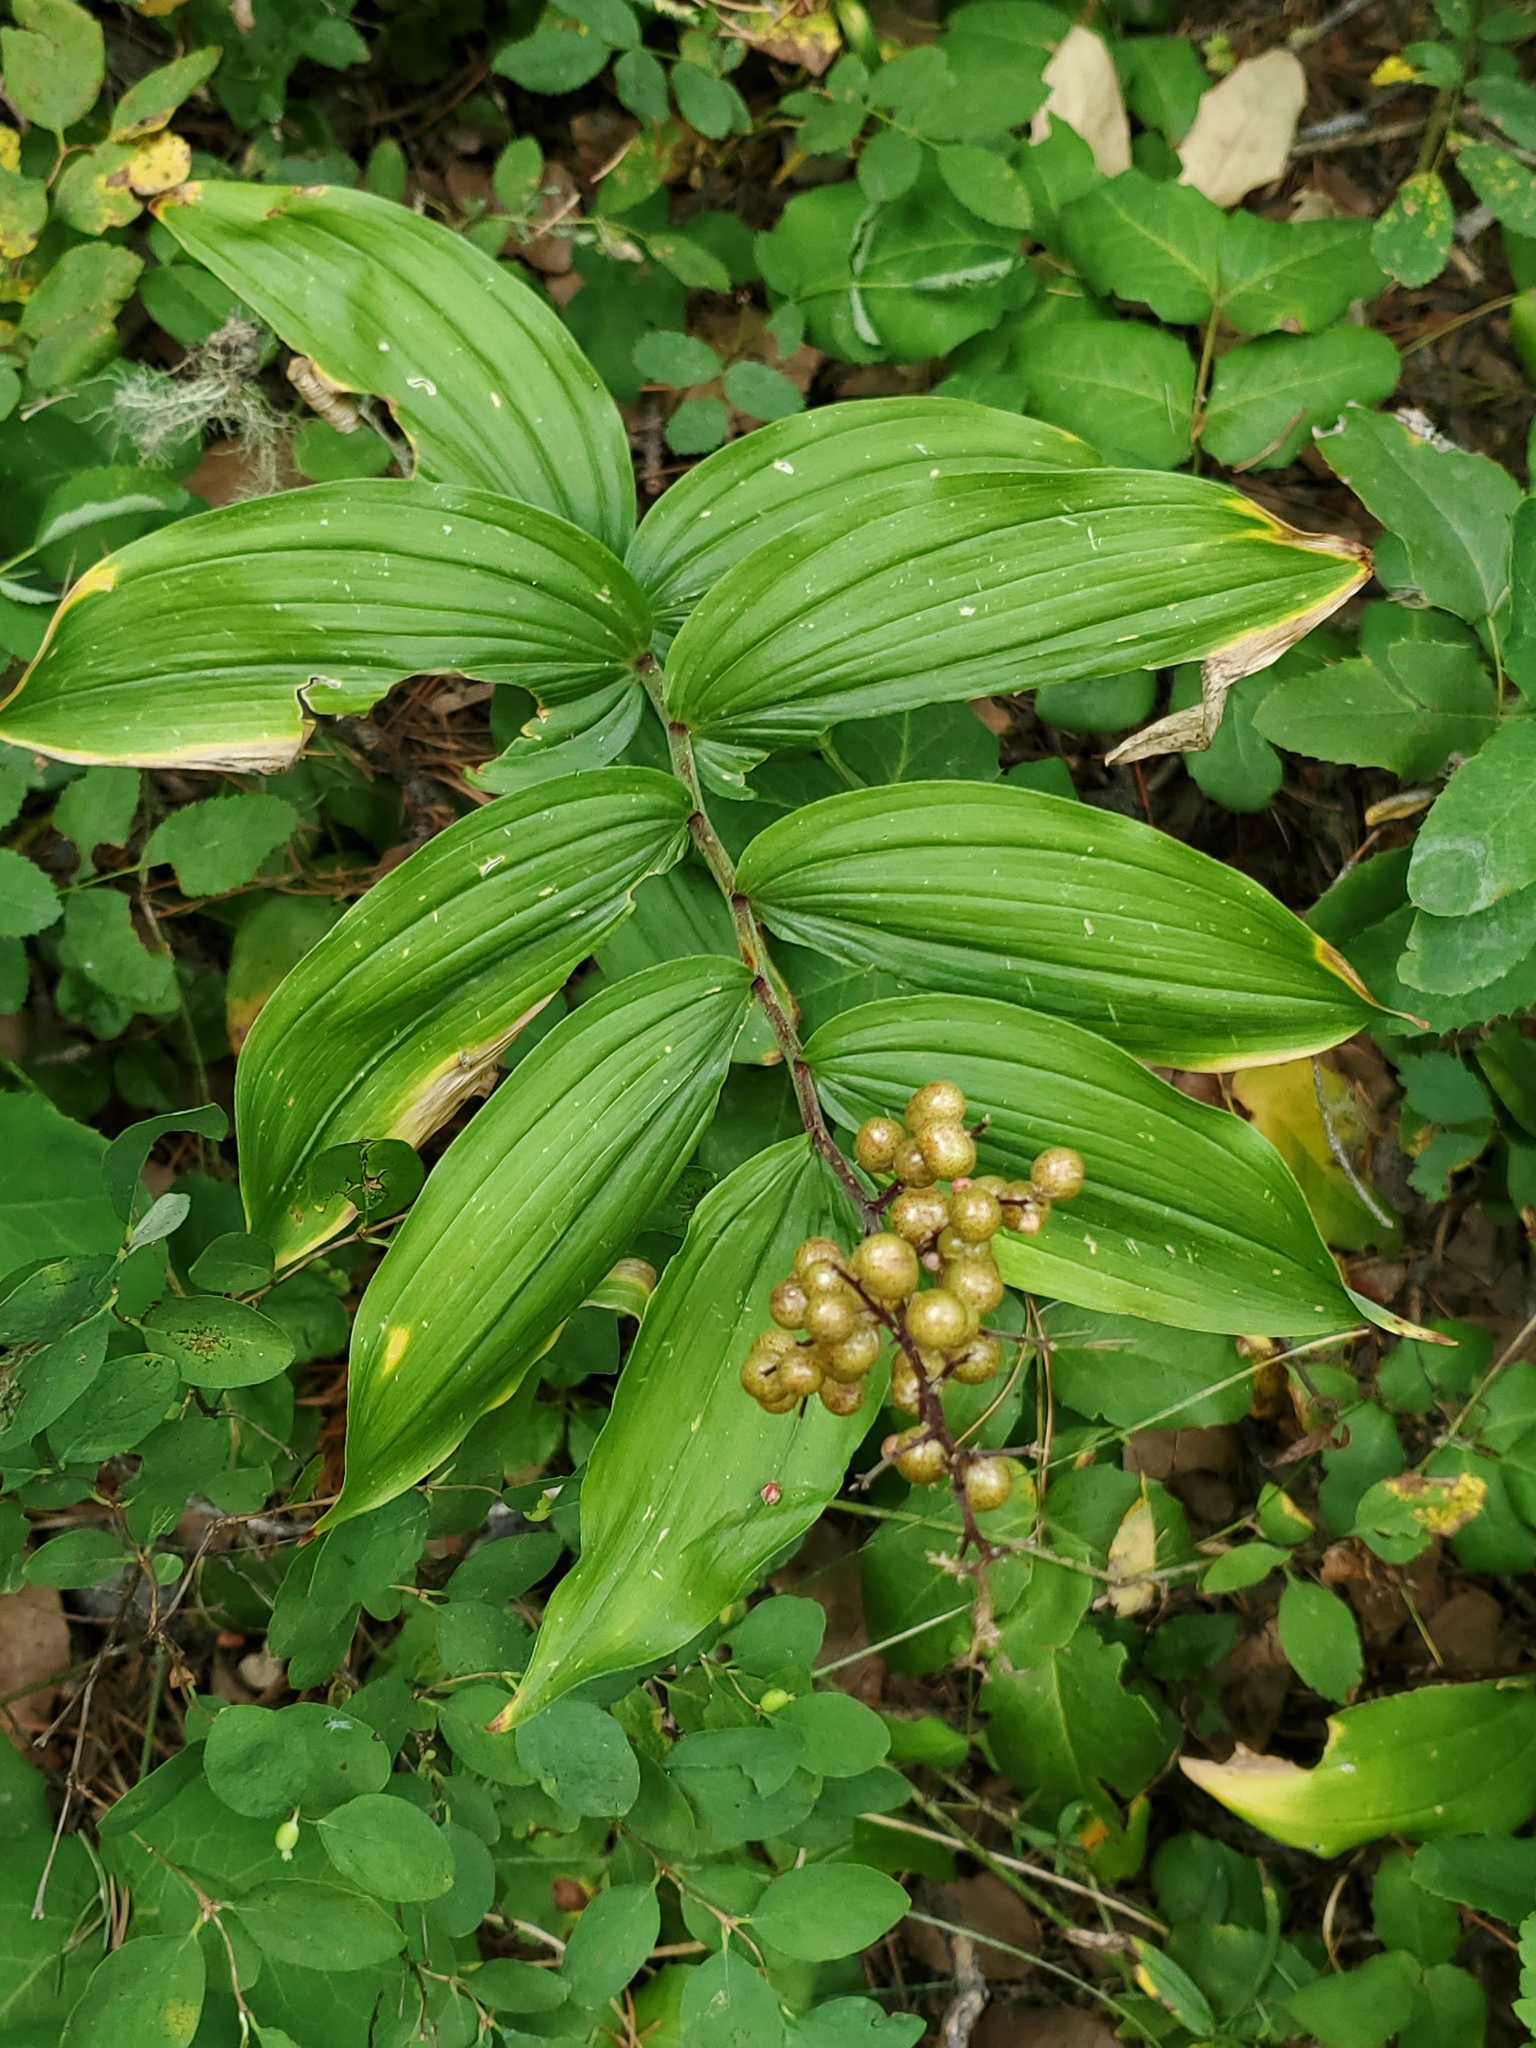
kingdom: Plantae
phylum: Tracheophyta
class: Liliopsida
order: Asparagales
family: Asparagaceae
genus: Maianthemum
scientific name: Maianthemum racemosum
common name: False spikenard
